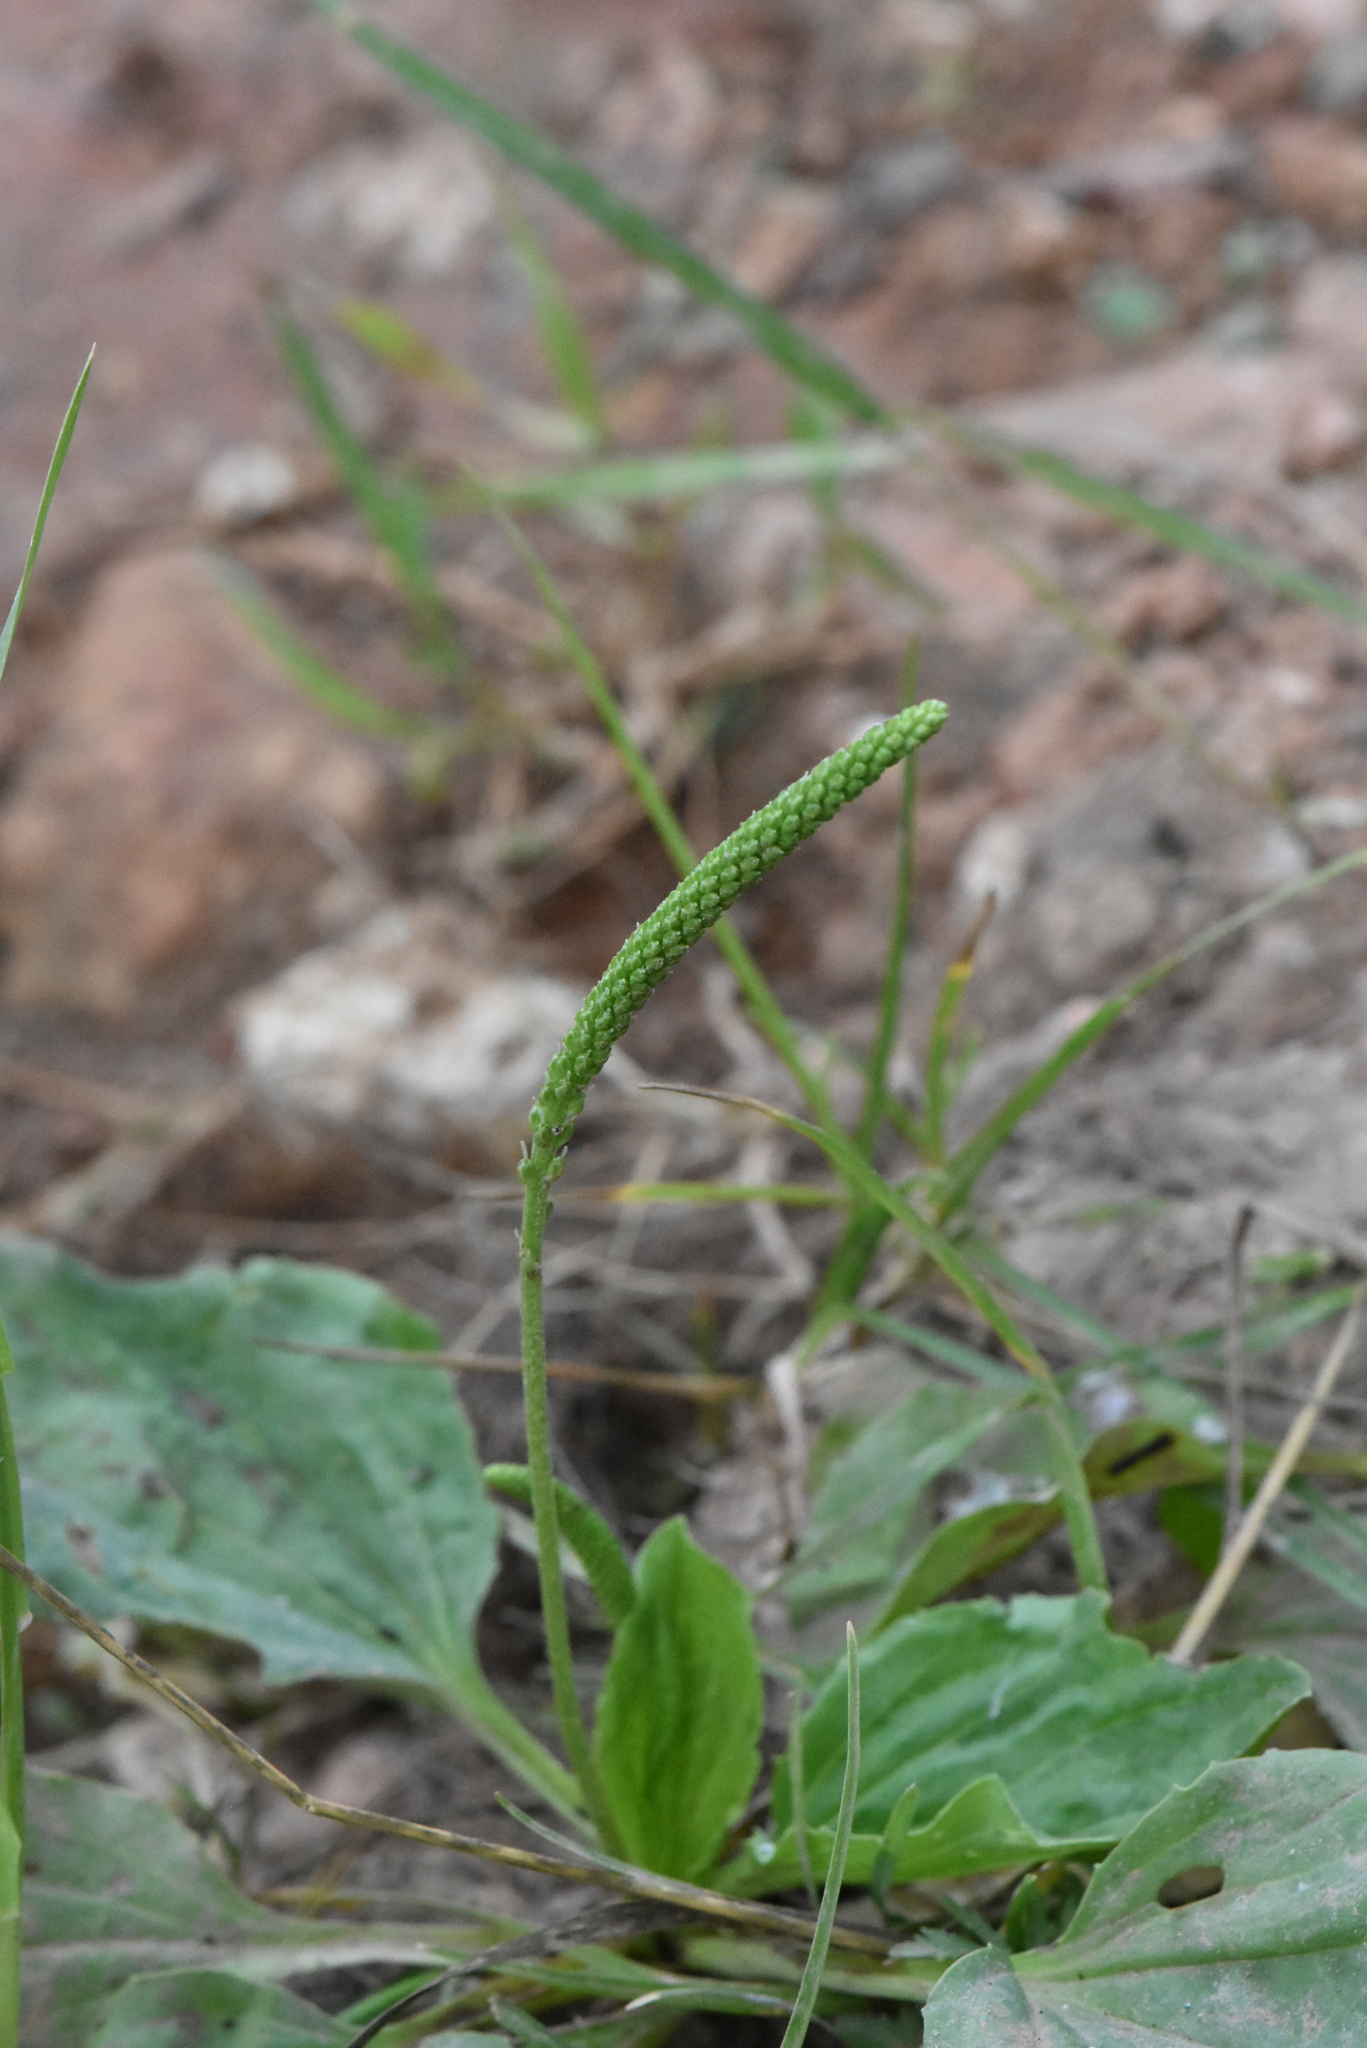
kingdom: Plantae
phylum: Tracheophyta
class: Magnoliopsida
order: Lamiales
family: Plantaginaceae
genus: Plantago
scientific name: Plantago major
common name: Common plantain
